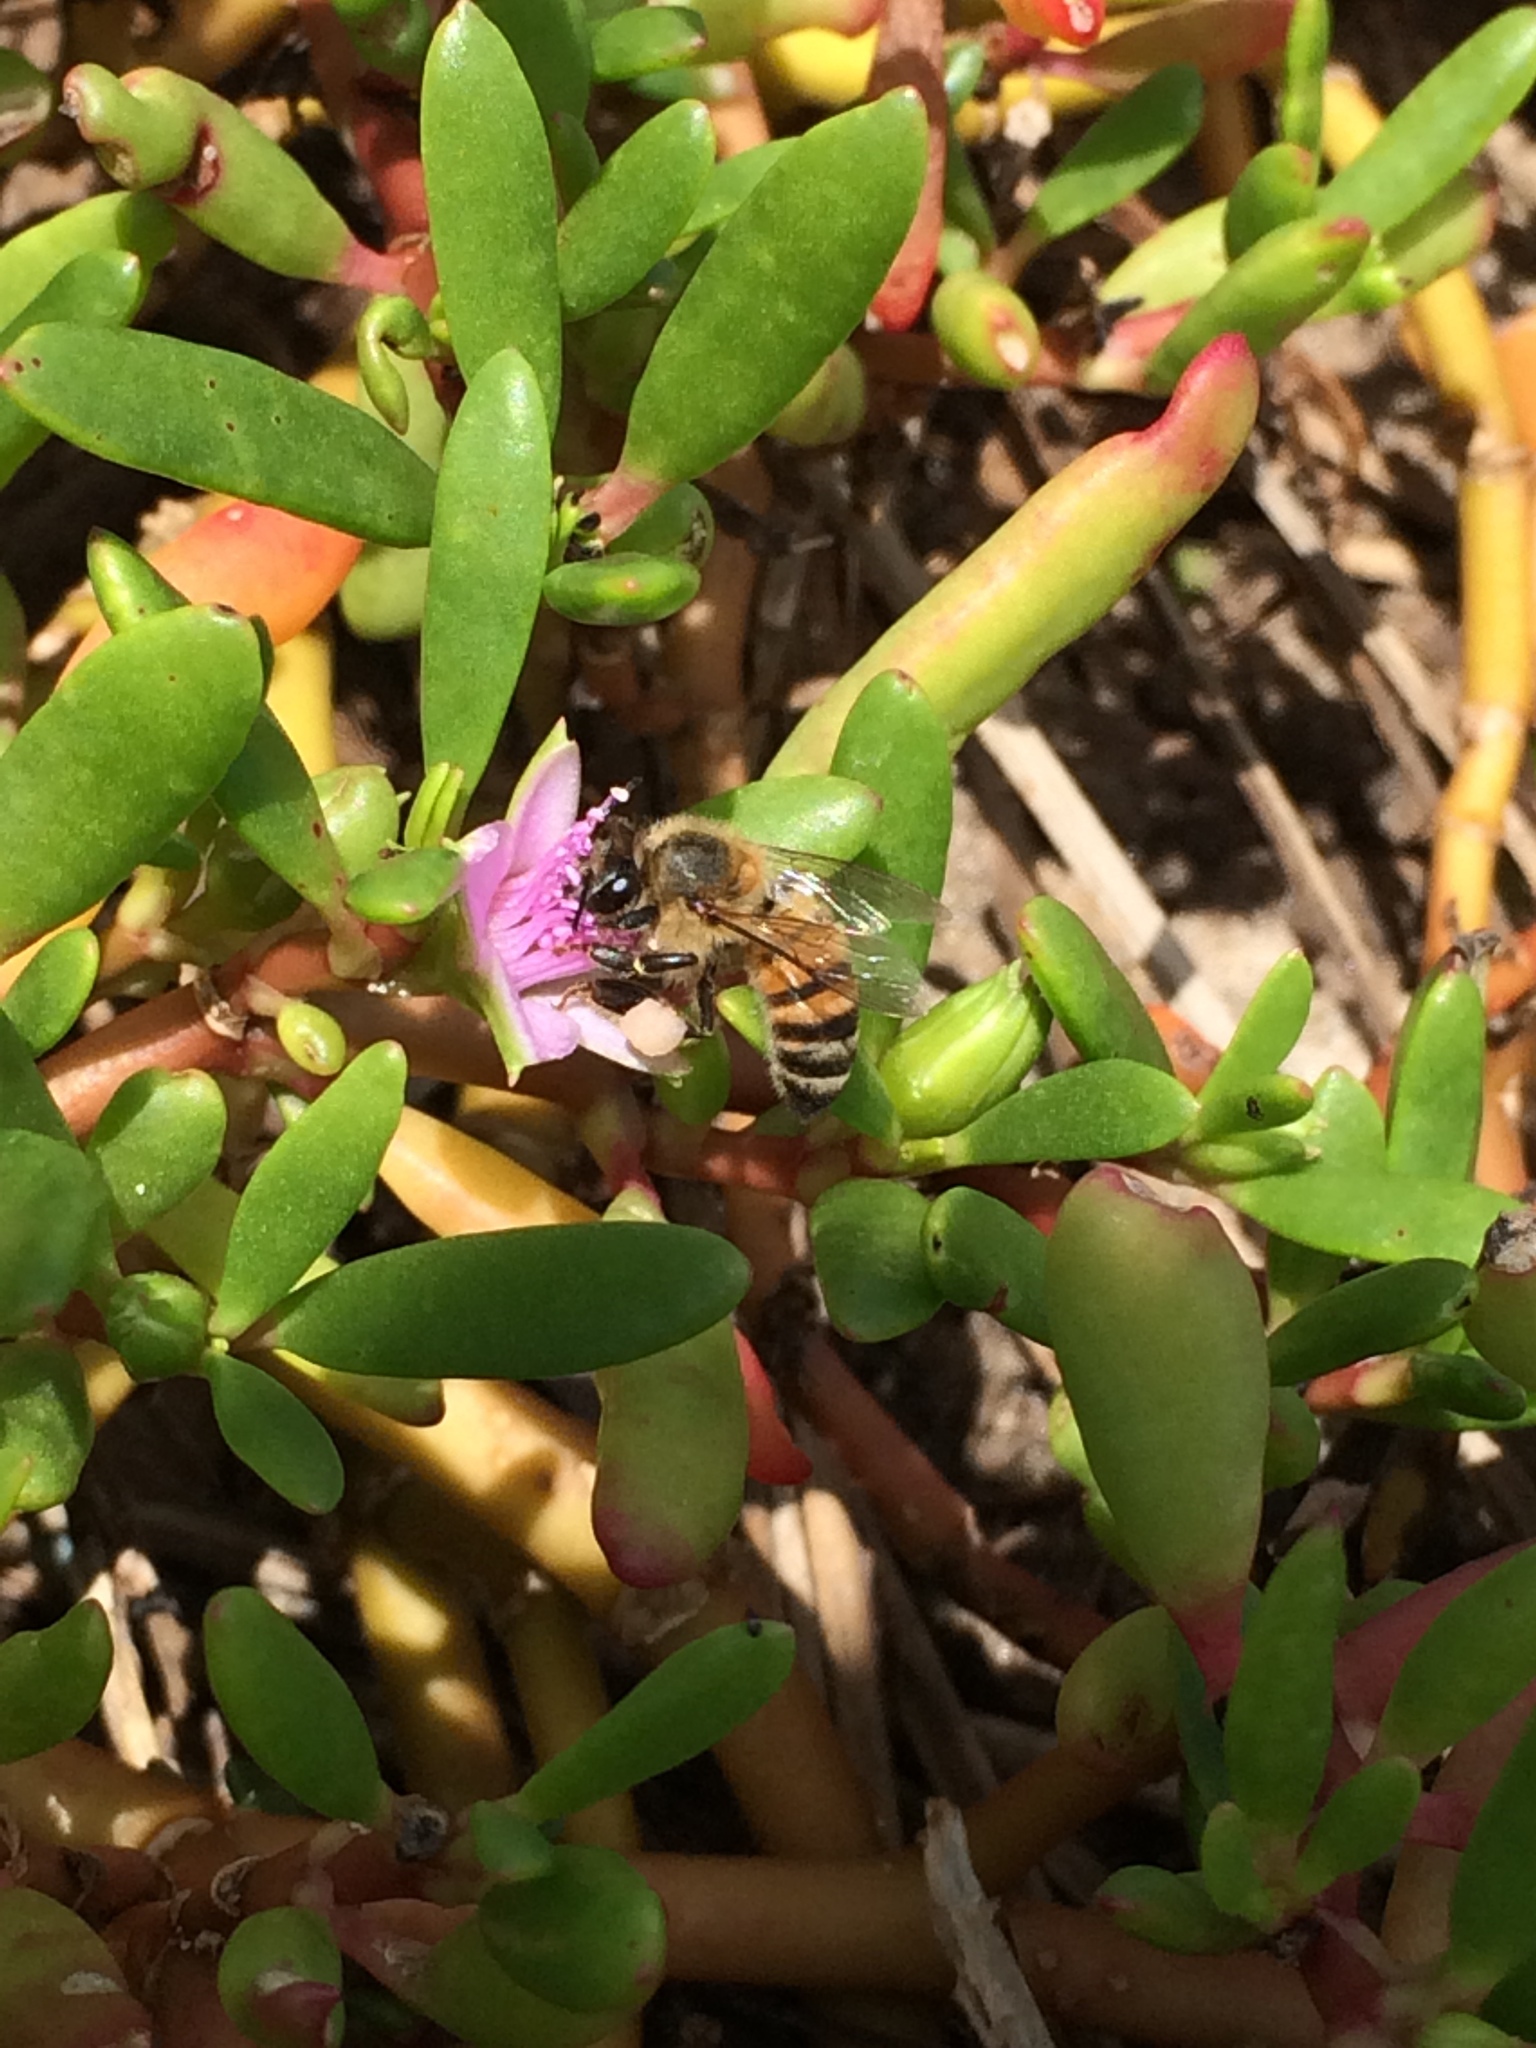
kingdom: Animalia
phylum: Arthropoda
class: Insecta
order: Hymenoptera
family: Apidae
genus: Apis
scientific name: Apis mellifera
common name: Honey bee
